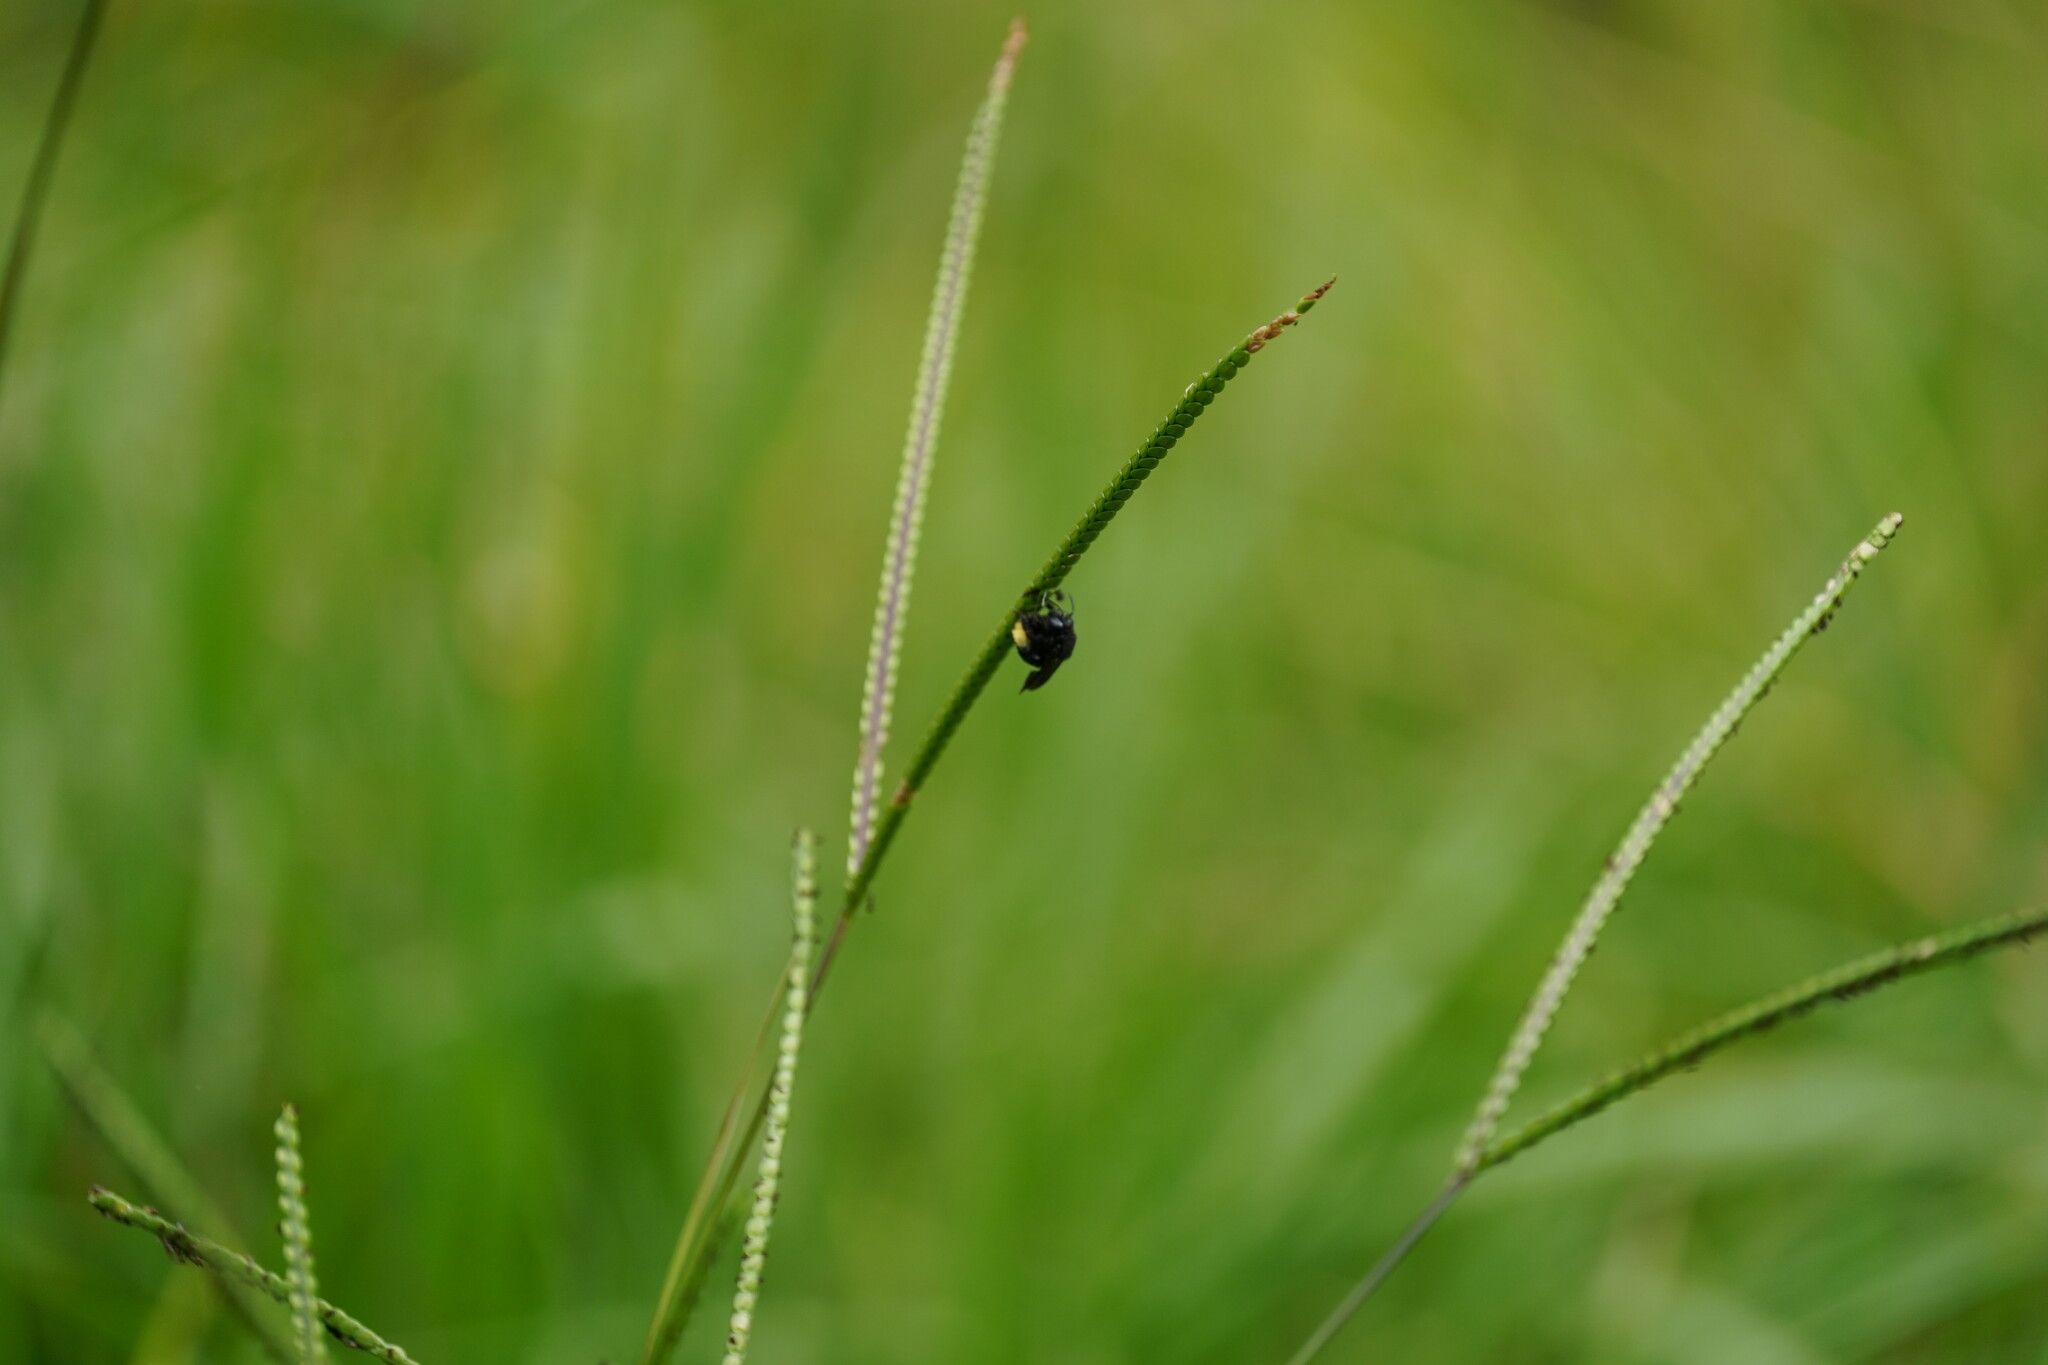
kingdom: Plantae
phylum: Tracheophyta
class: Liliopsida
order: Poales
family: Poaceae
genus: Paspalum
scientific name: Paspalum notatum
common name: Bahiagrass
